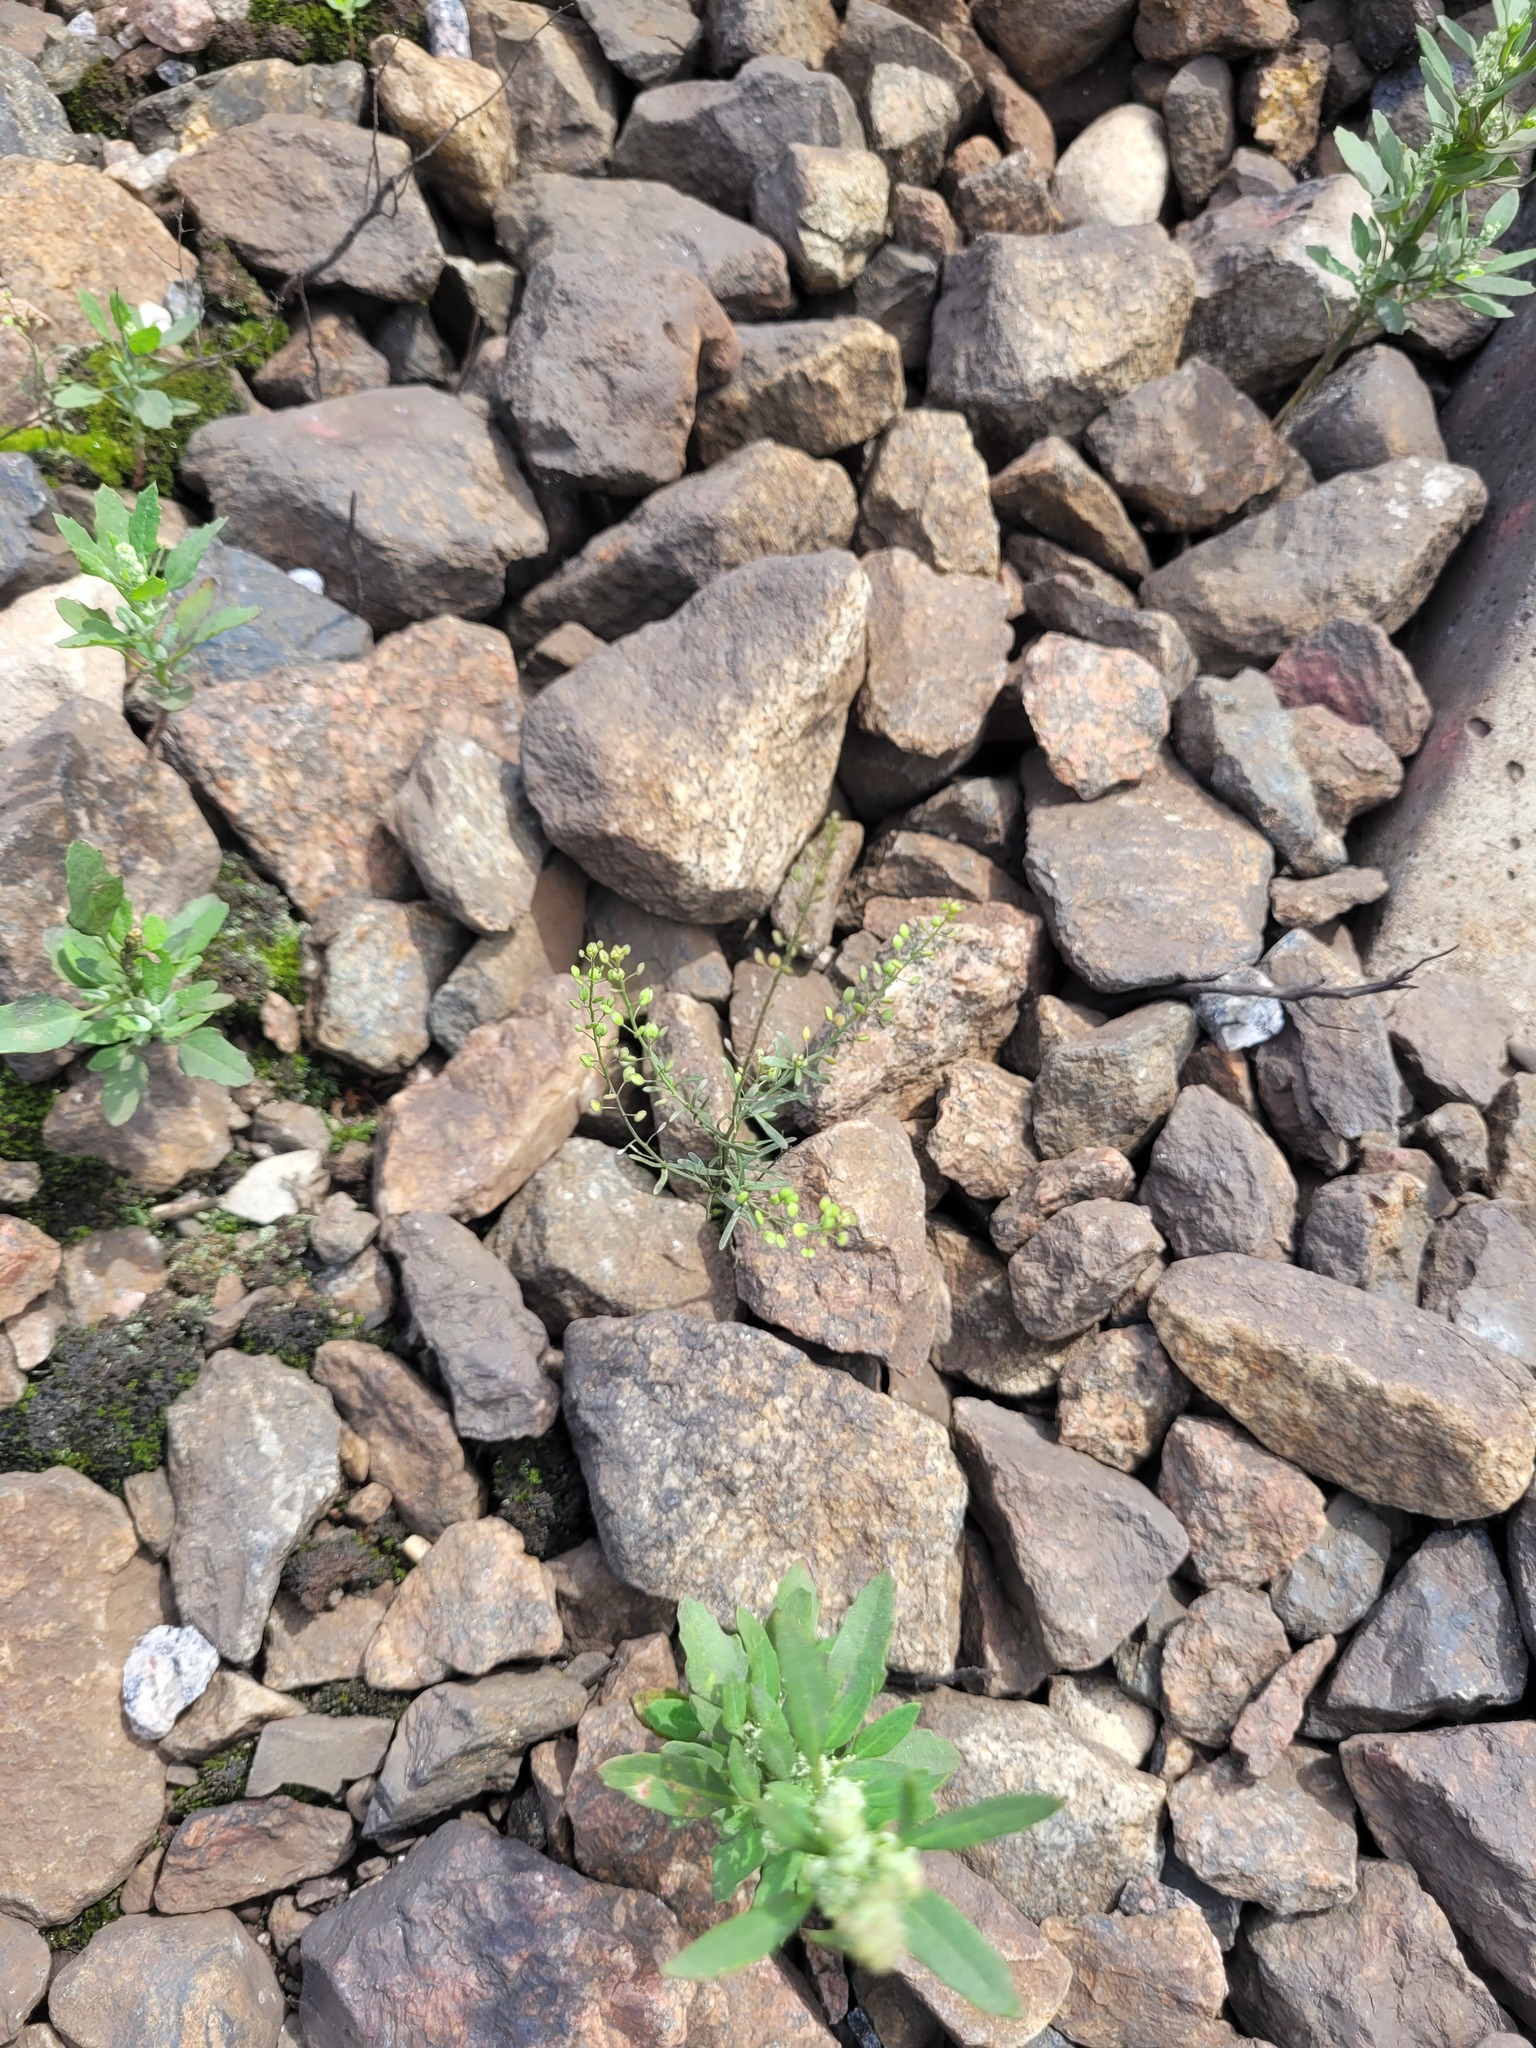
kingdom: Plantae
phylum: Tracheophyta
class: Magnoliopsida
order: Brassicales
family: Brassicaceae
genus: Lepidium
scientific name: Lepidium ruderale
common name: Narrow-leaved pepperwort
